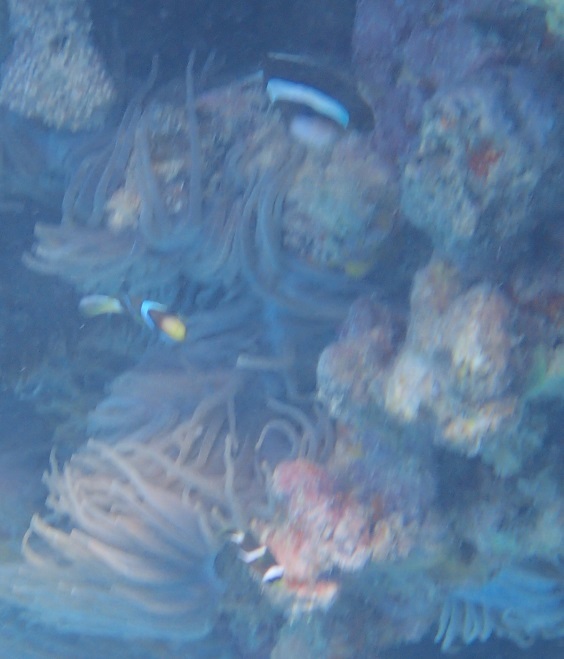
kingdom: Animalia
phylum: Chordata
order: Perciformes
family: Pomacentridae
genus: Amphiprion
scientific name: Amphiprion akindynos
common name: Barrier reef anemonefish
